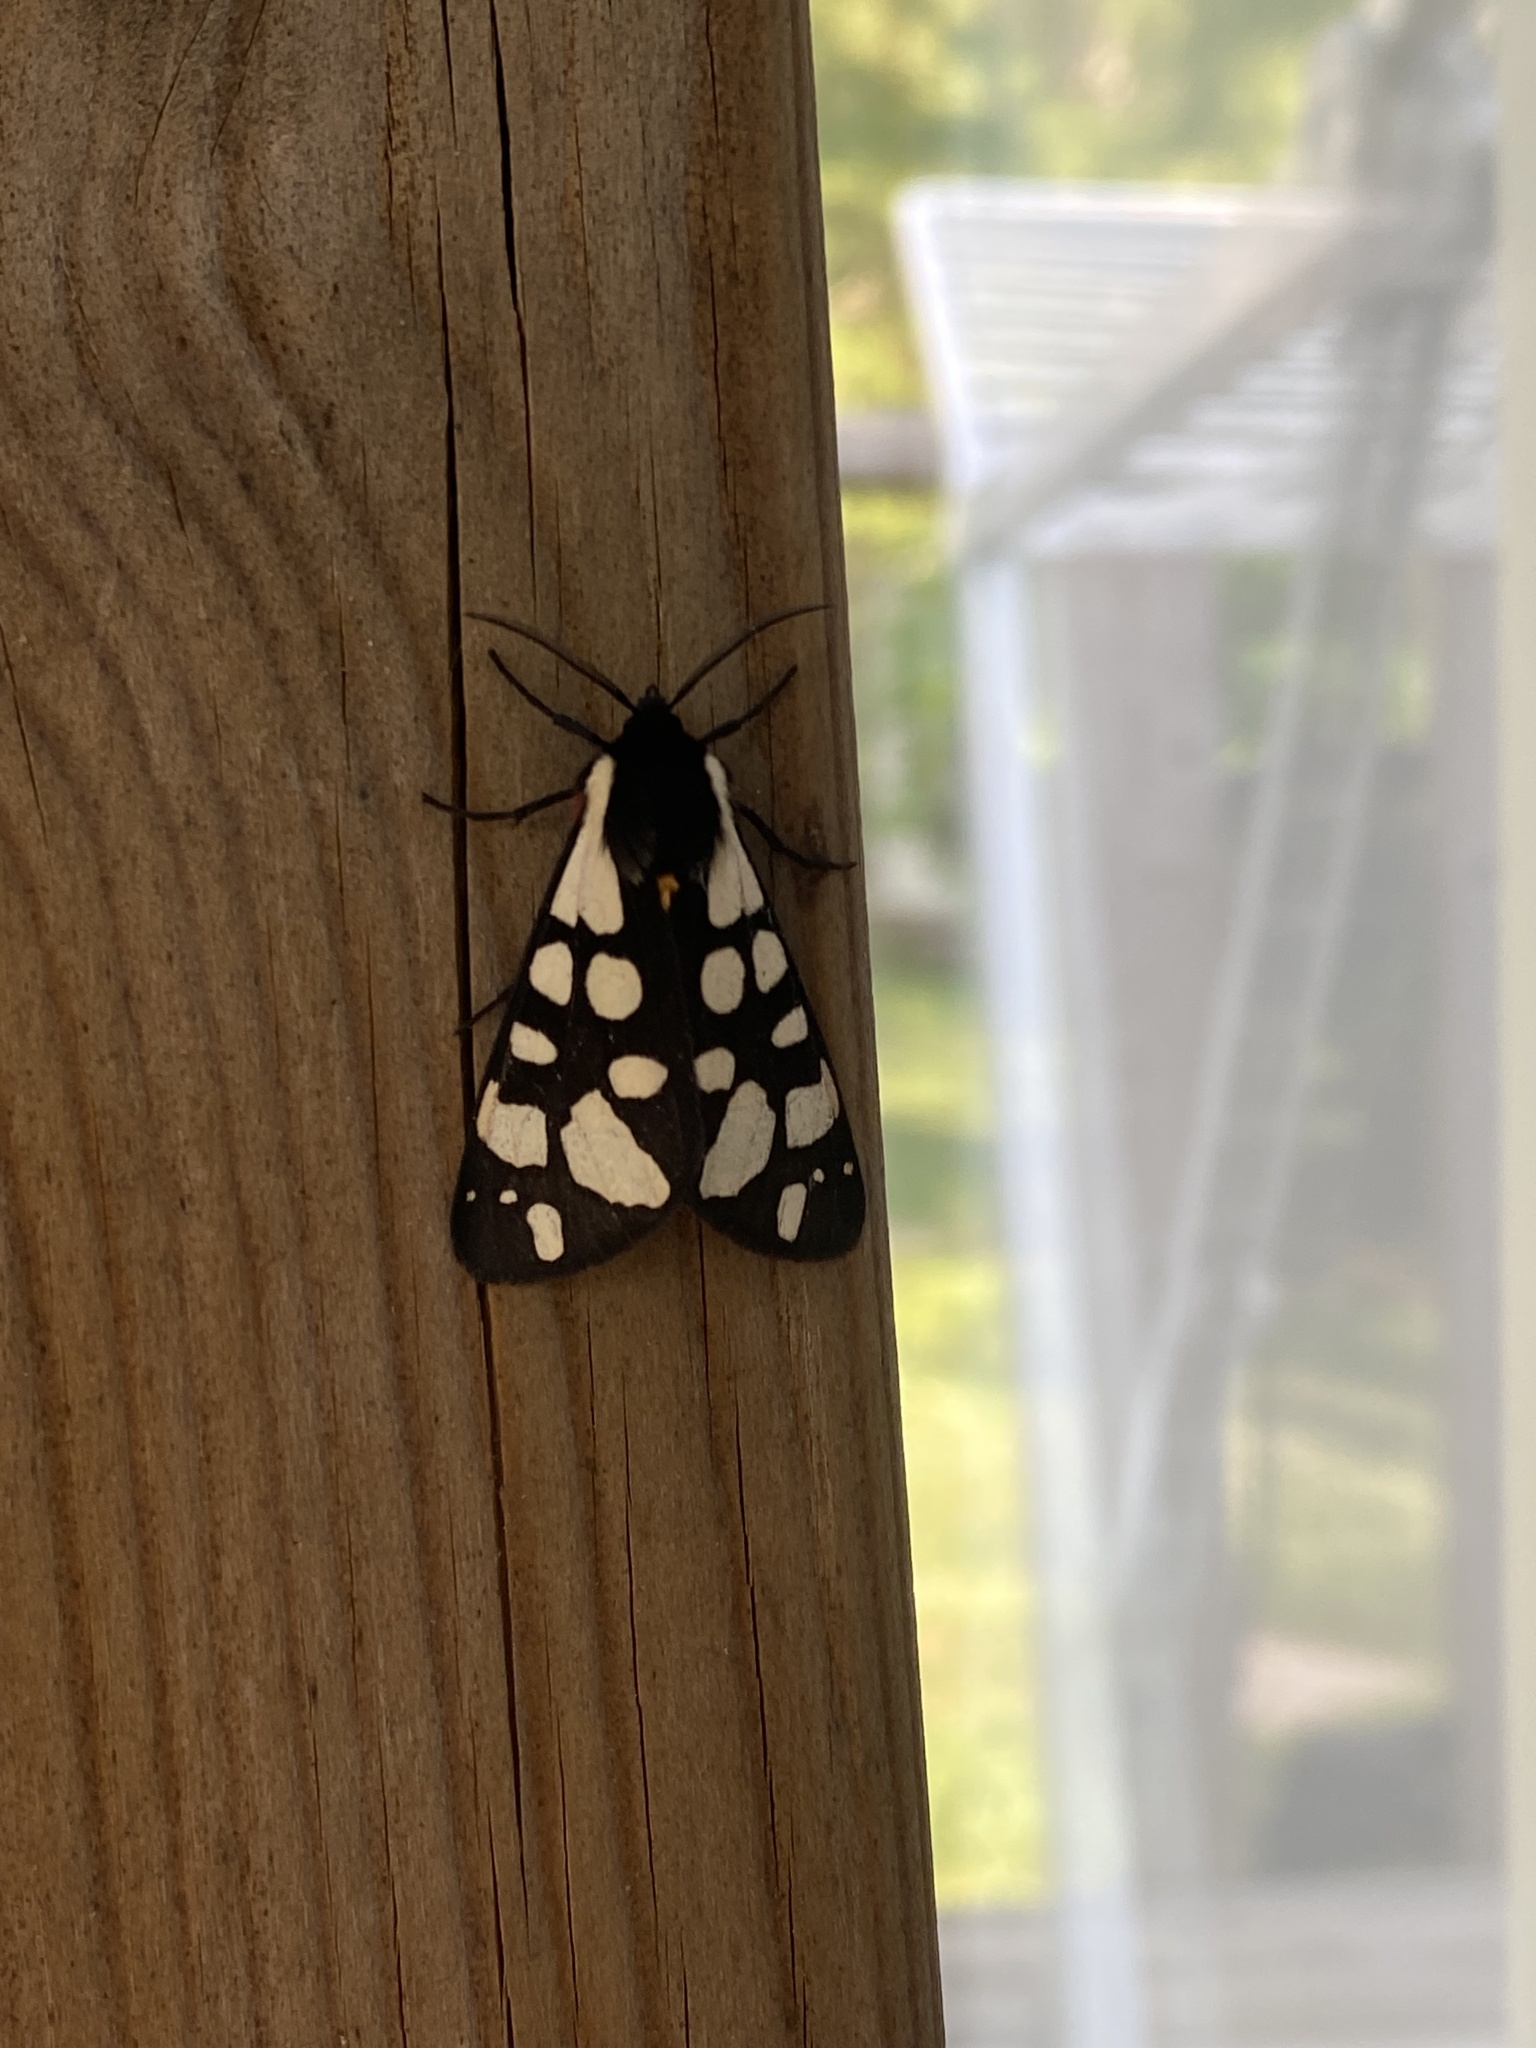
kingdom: Animalia
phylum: Arthropoda
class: Insecta
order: Lepidoptera
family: Erebidae
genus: Epicallia
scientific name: Epicallia villica
